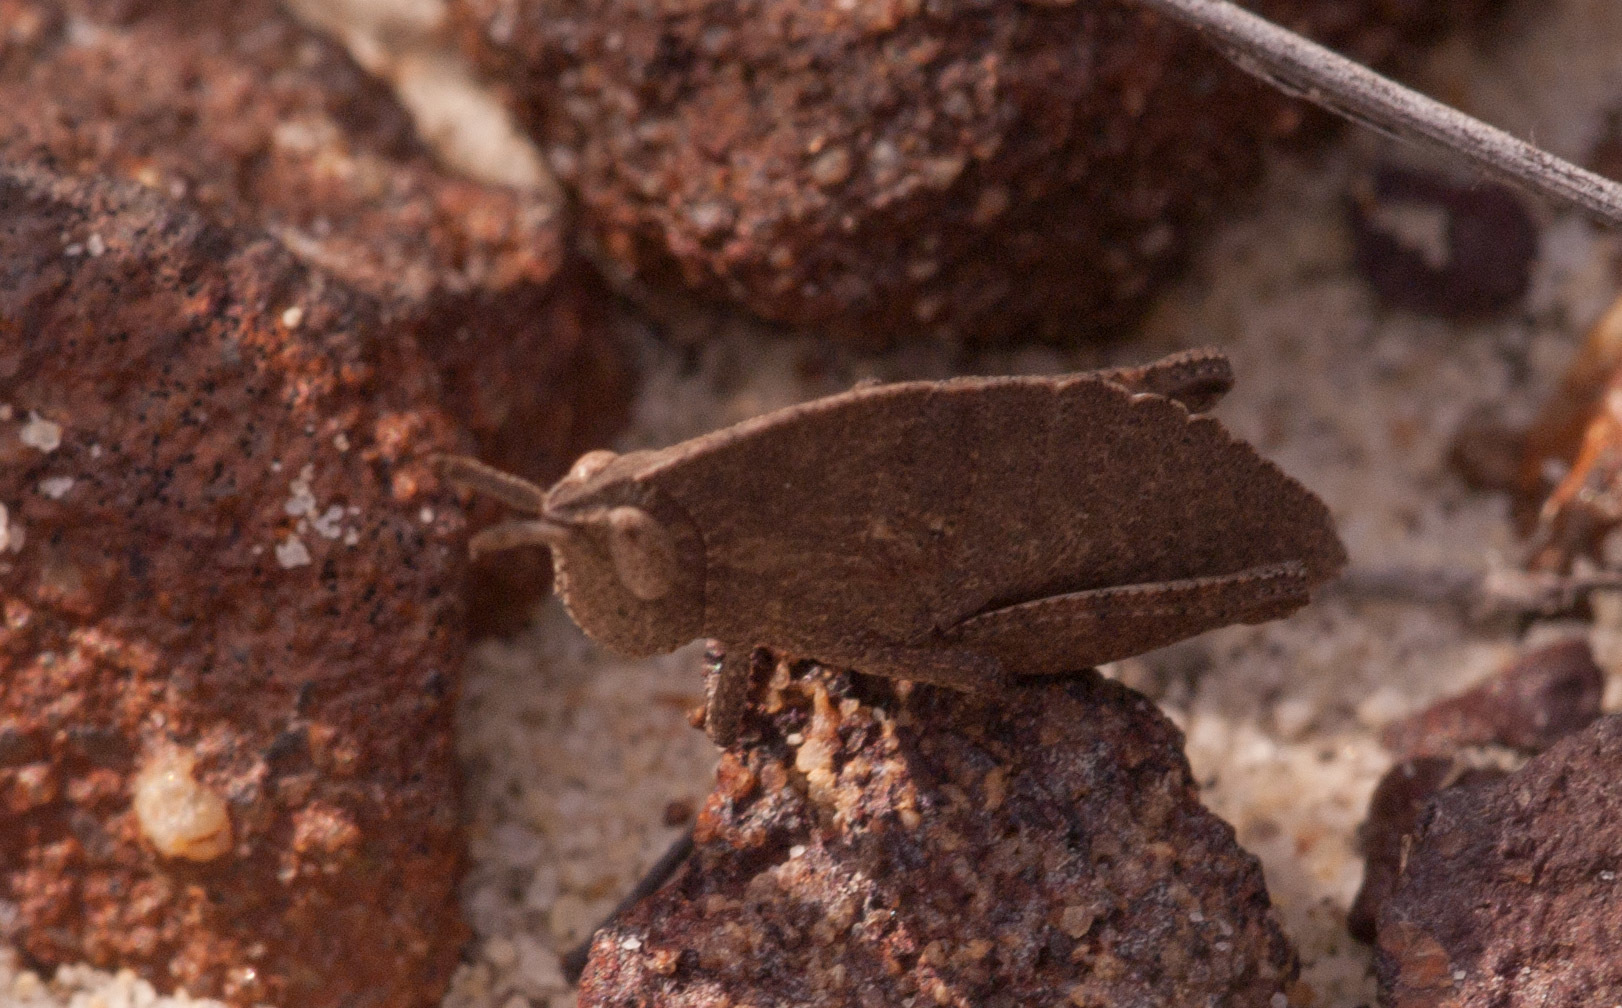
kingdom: Animalia
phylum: Arthropoda
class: Insecta
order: Orthoptera
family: Acrididae
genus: Goniaea
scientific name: Goniaea australasiae
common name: Gumleaf grasshopper
